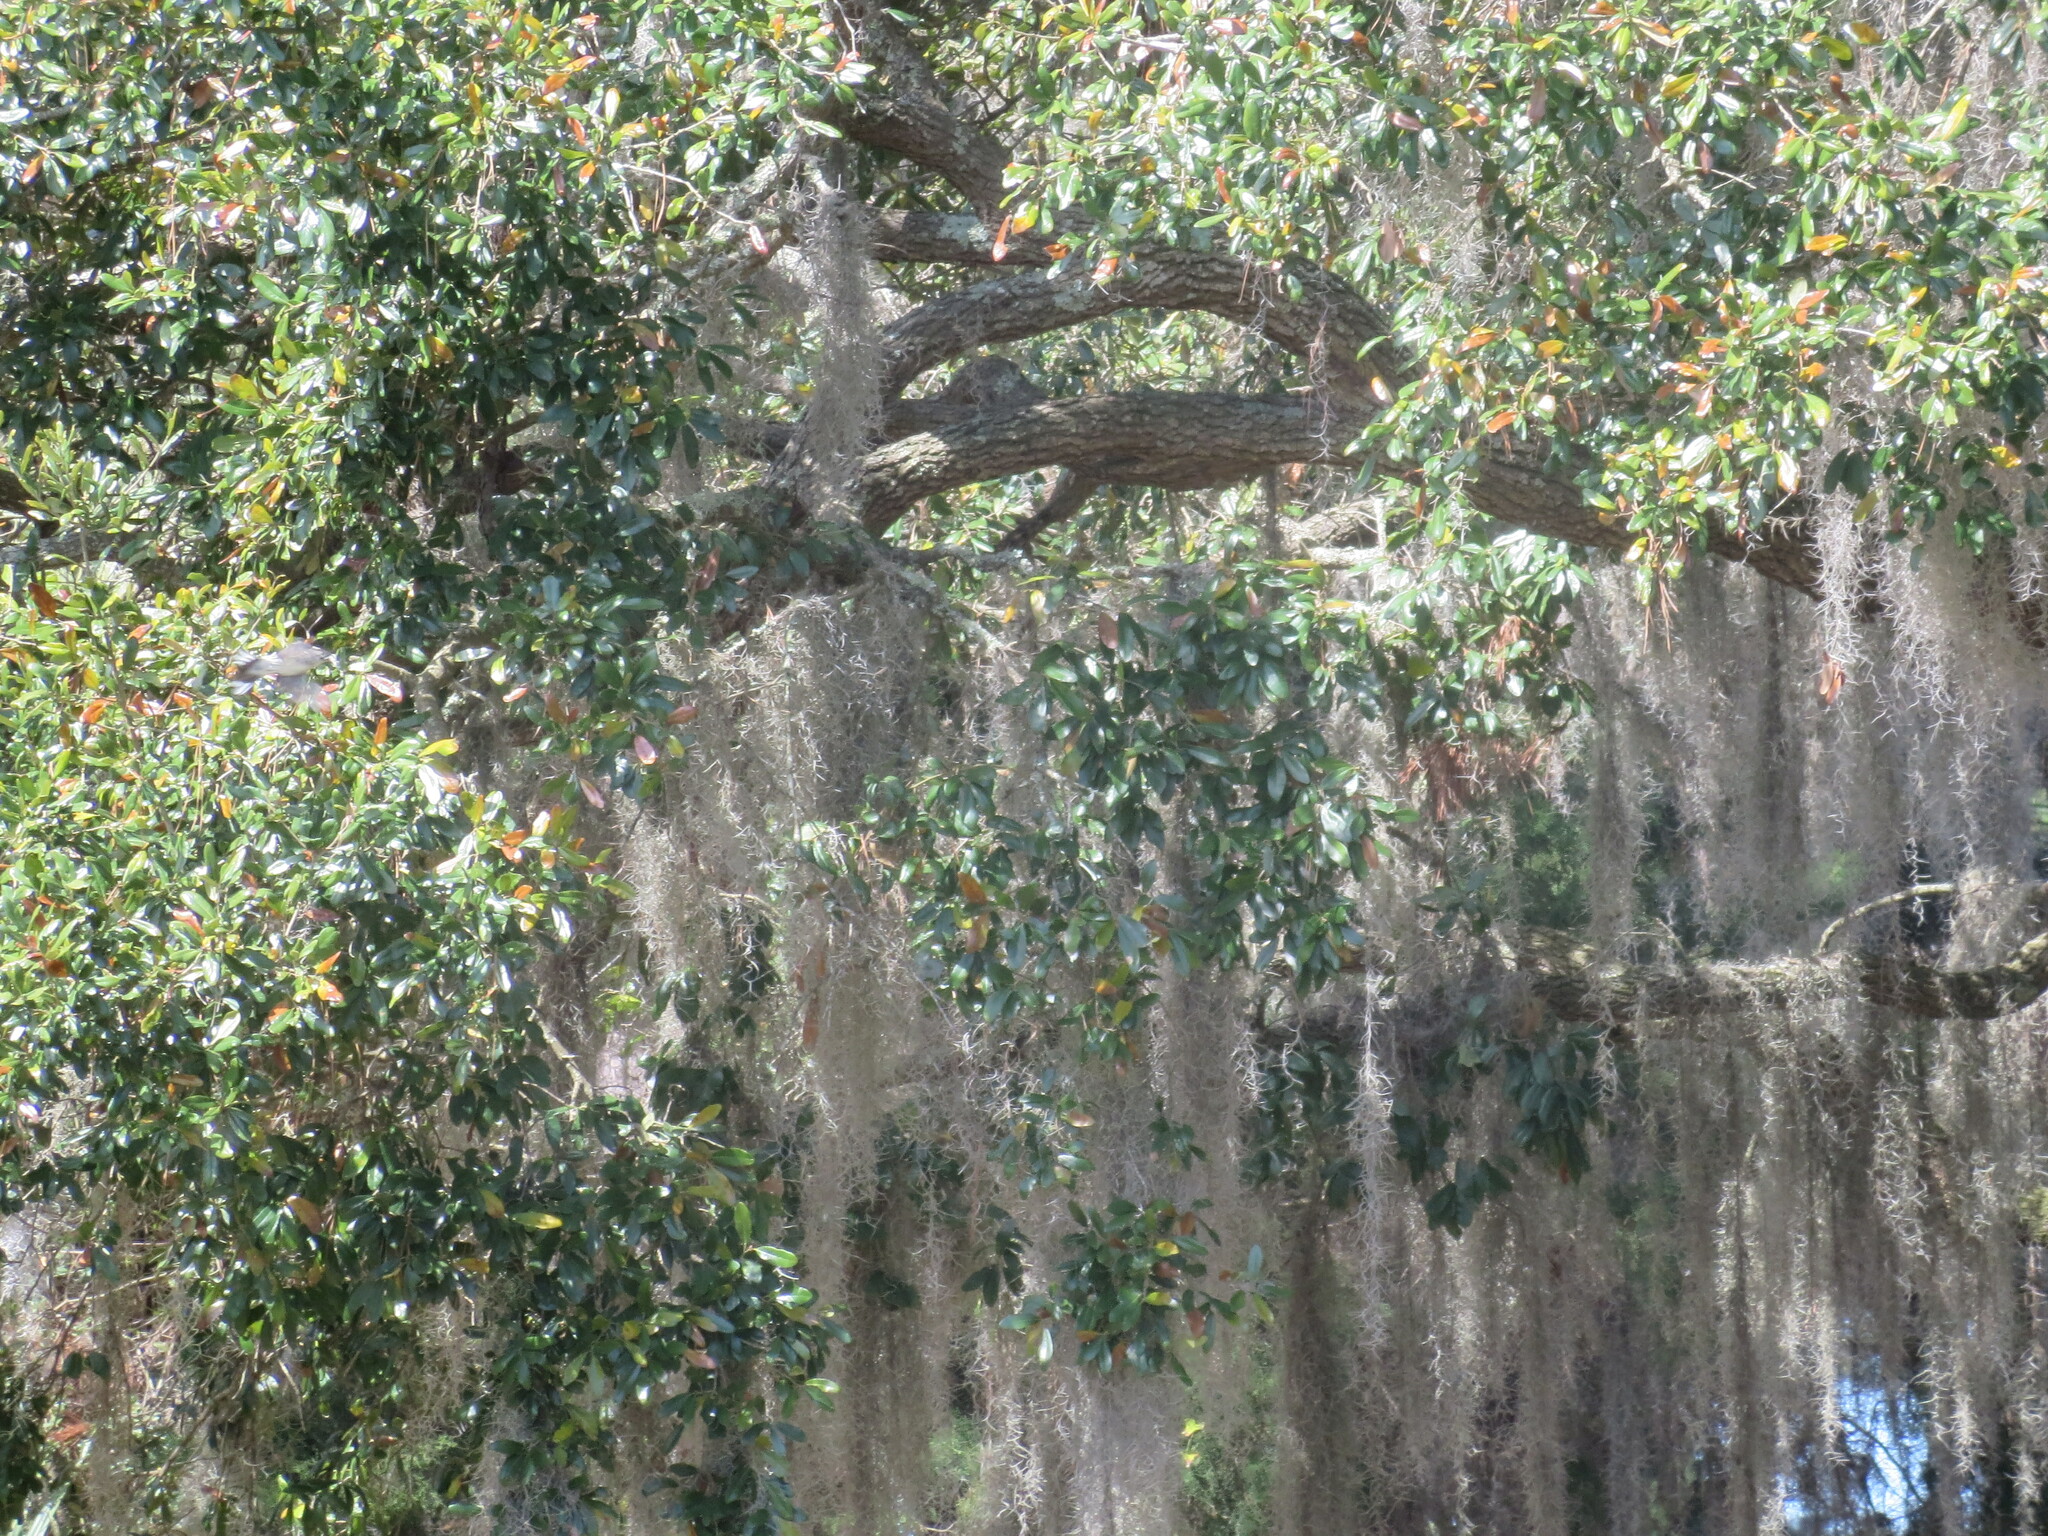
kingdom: Plantae
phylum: Tracheophyta
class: Liliopsida
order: Poales
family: Bromeliaceae
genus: Tillandsia
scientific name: Tillandsia usneoides
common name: Spanish moss
